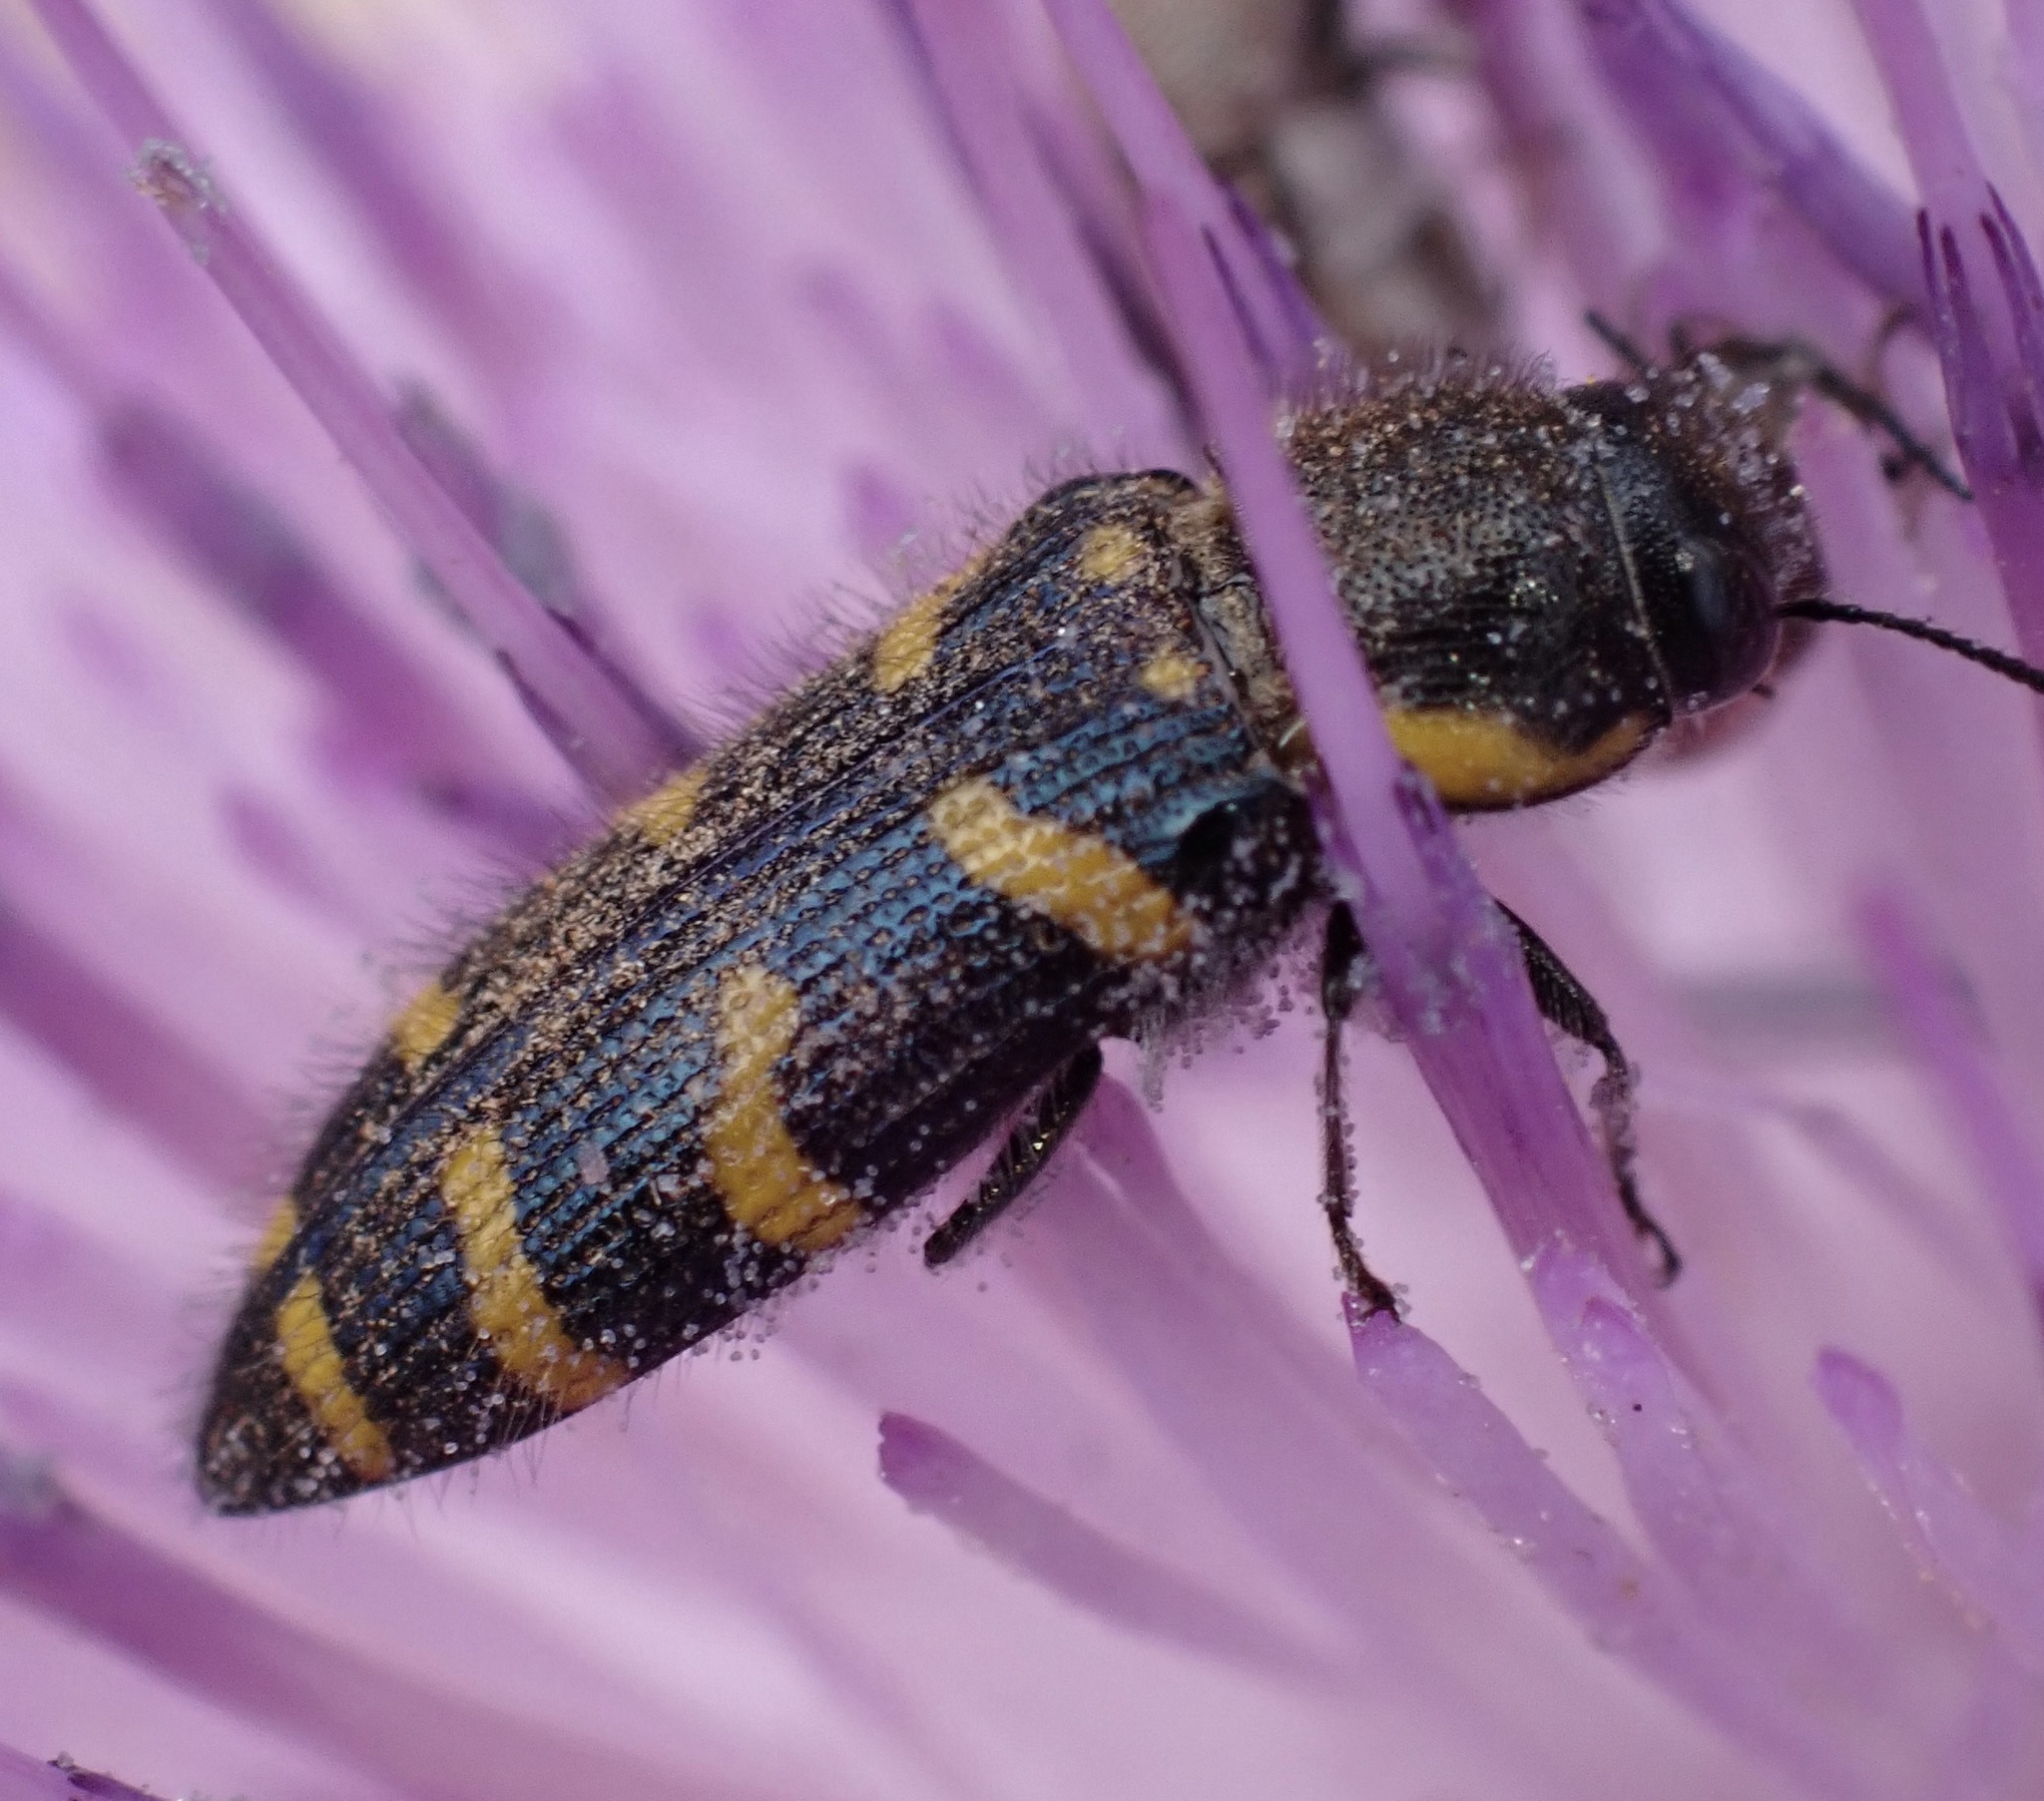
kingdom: Animalia
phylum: Arthropoda
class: Insecta
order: Coleoptera
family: Buprestidae
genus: Acmaeodera
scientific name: Acmaeodera quadrifasciata
